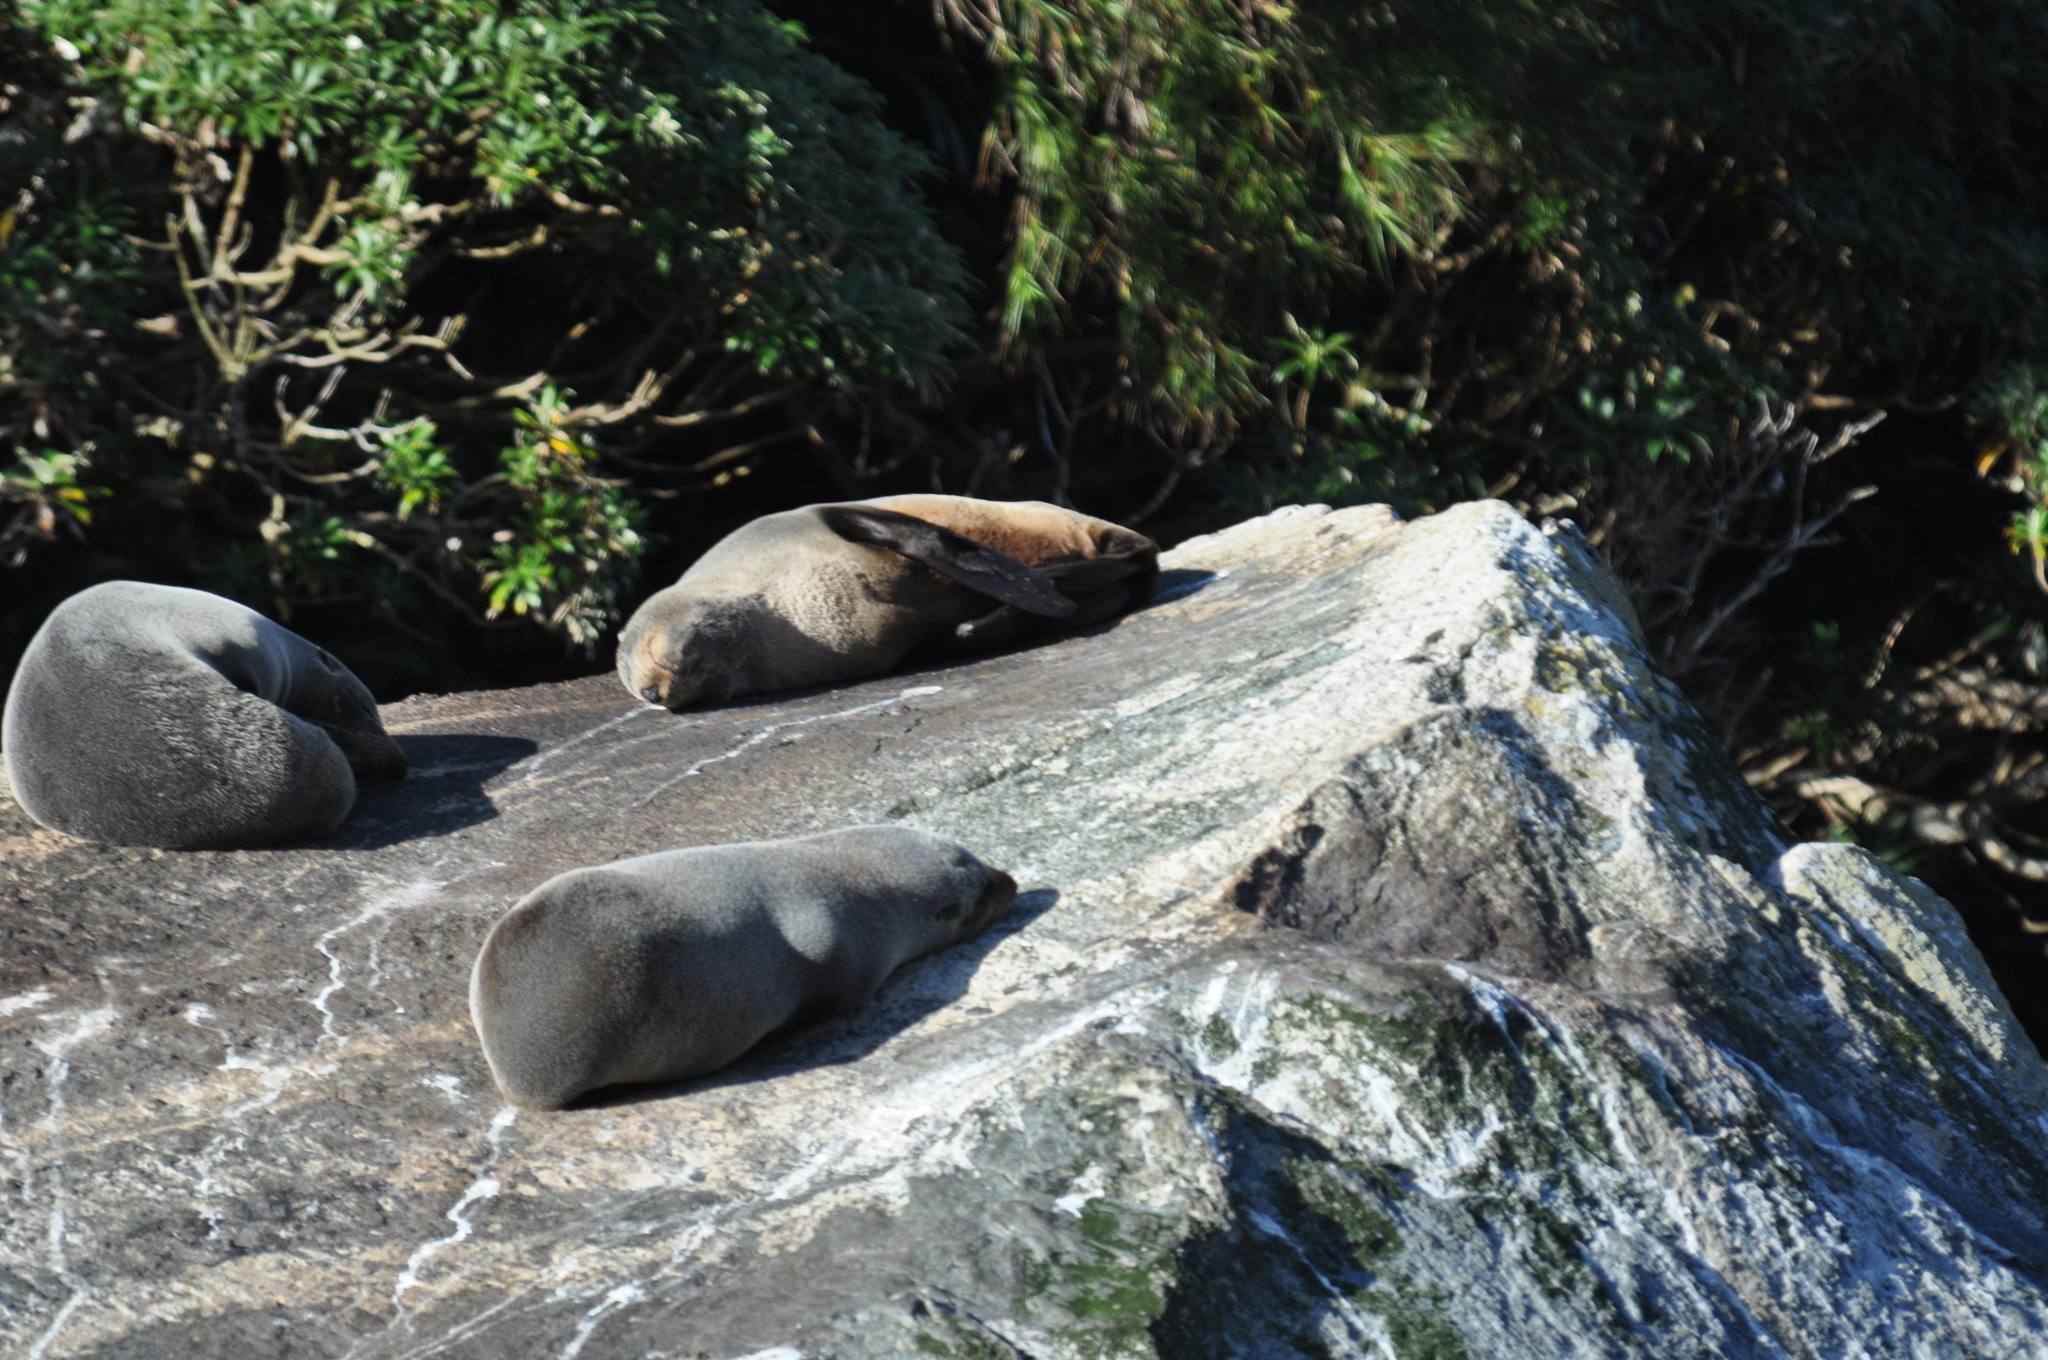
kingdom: Animalia
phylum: Chordata
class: Mammalia
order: Carnivora
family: Otariidae
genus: Arctocephalus
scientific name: Arctocephalus forsteri
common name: New zealand fur seal
